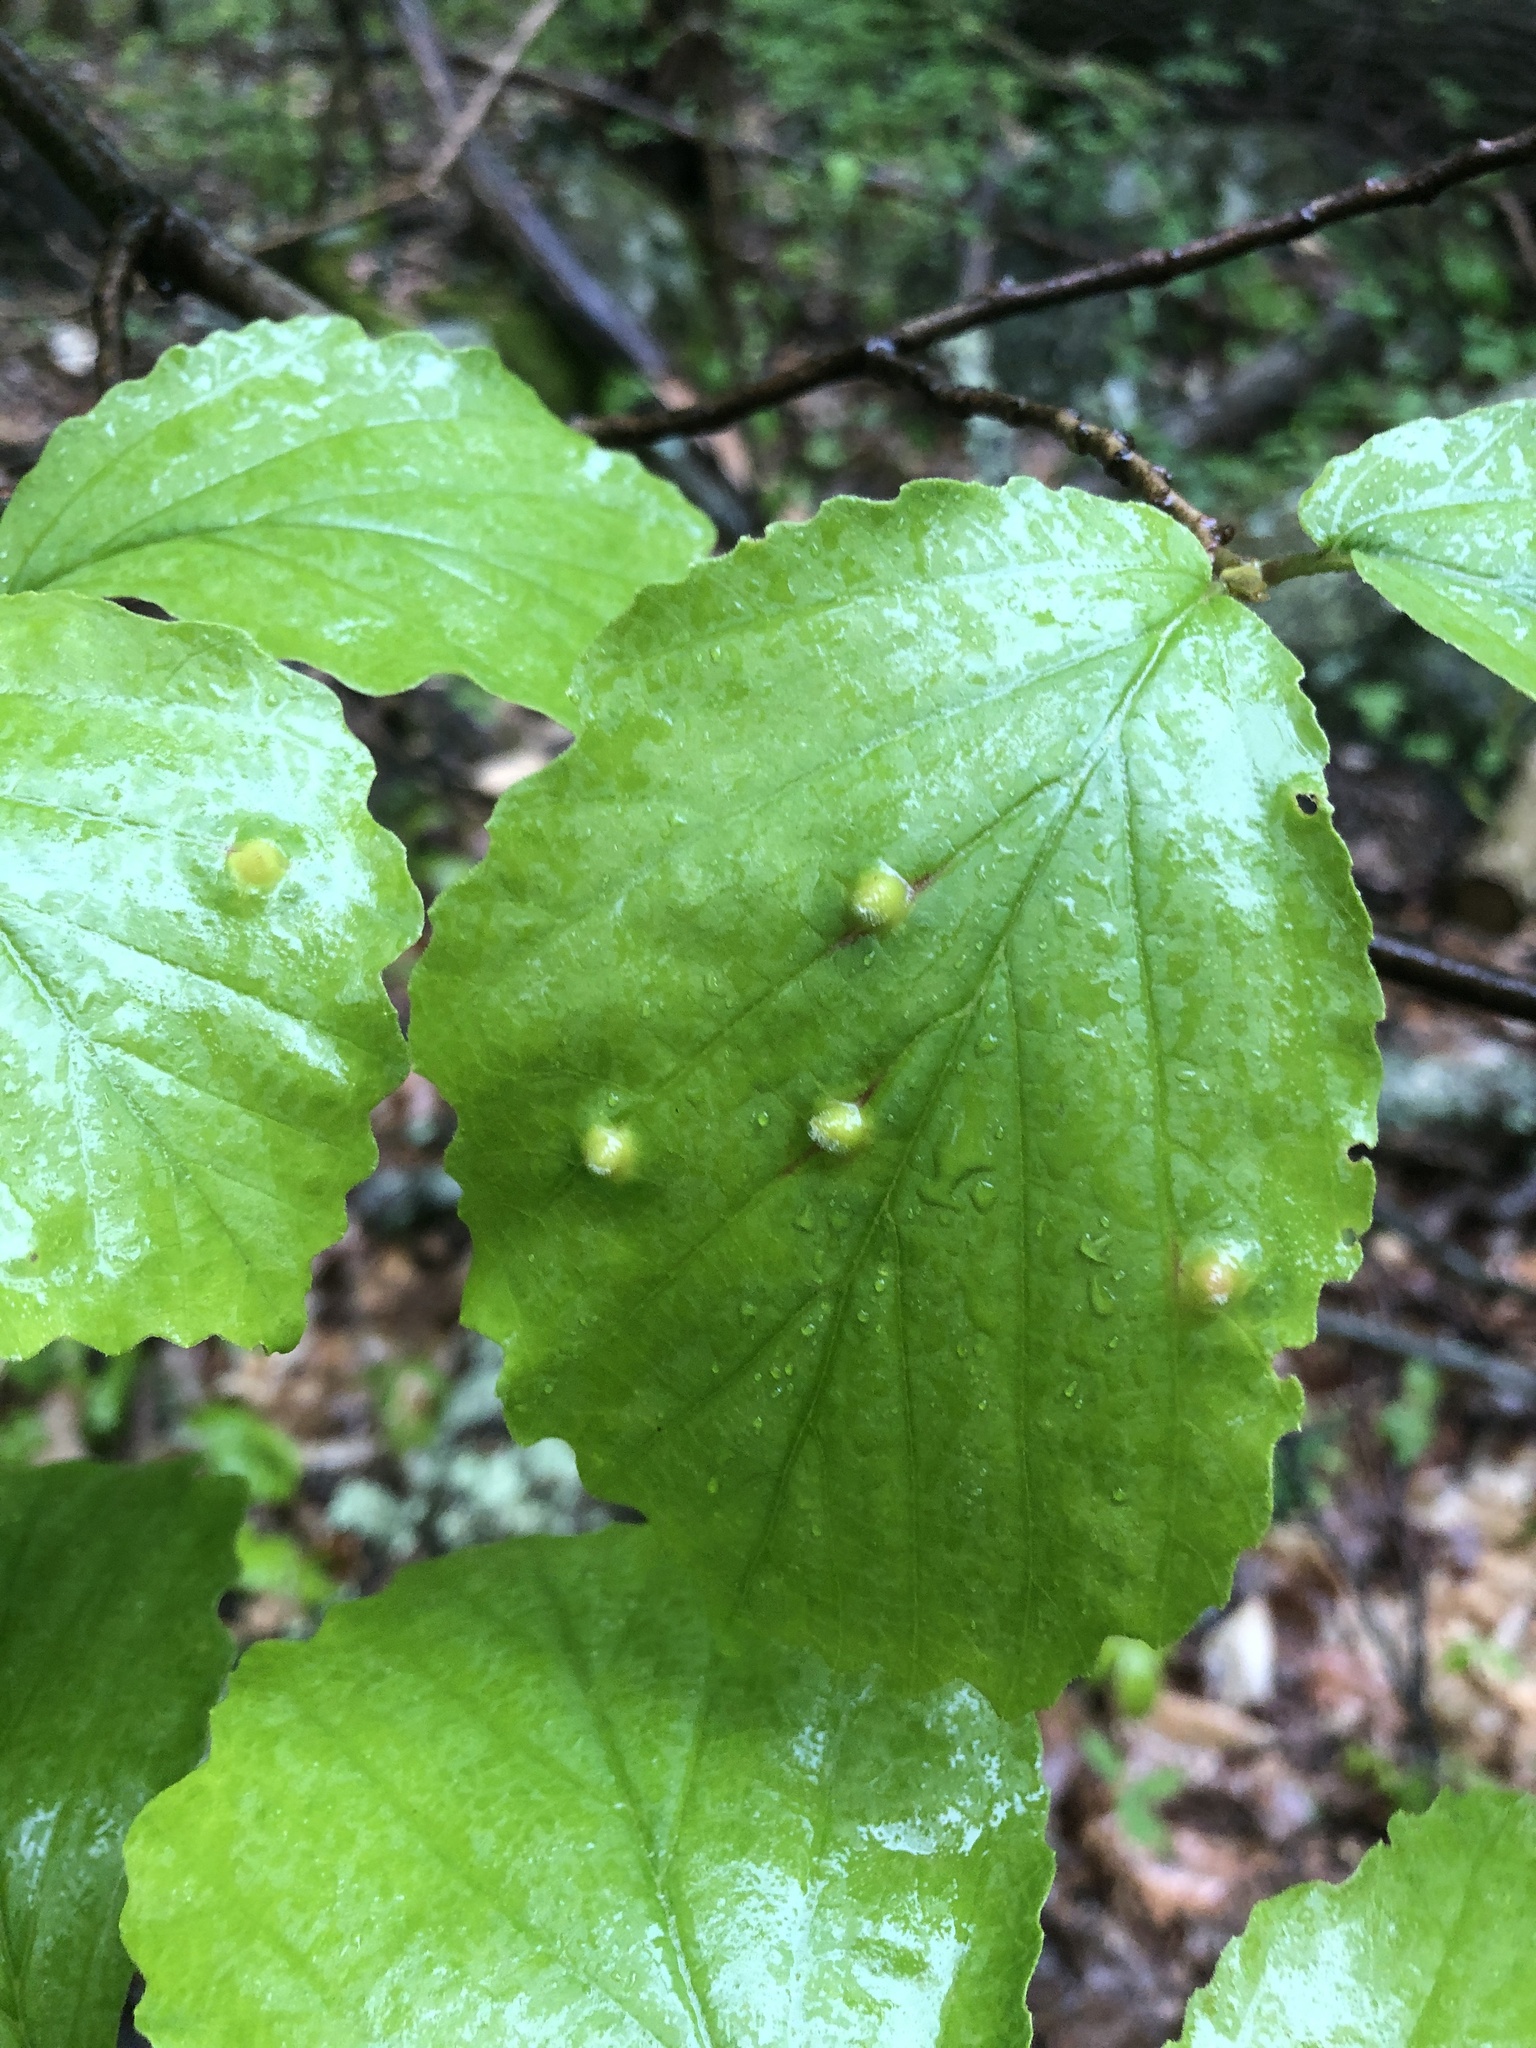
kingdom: Animalia
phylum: Arthropoda
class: Insecta
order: Hemiptera
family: Aphididae
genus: Hormaphis
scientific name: Hormaphis hamamelidis
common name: Witch-hazel cone gall aphid
